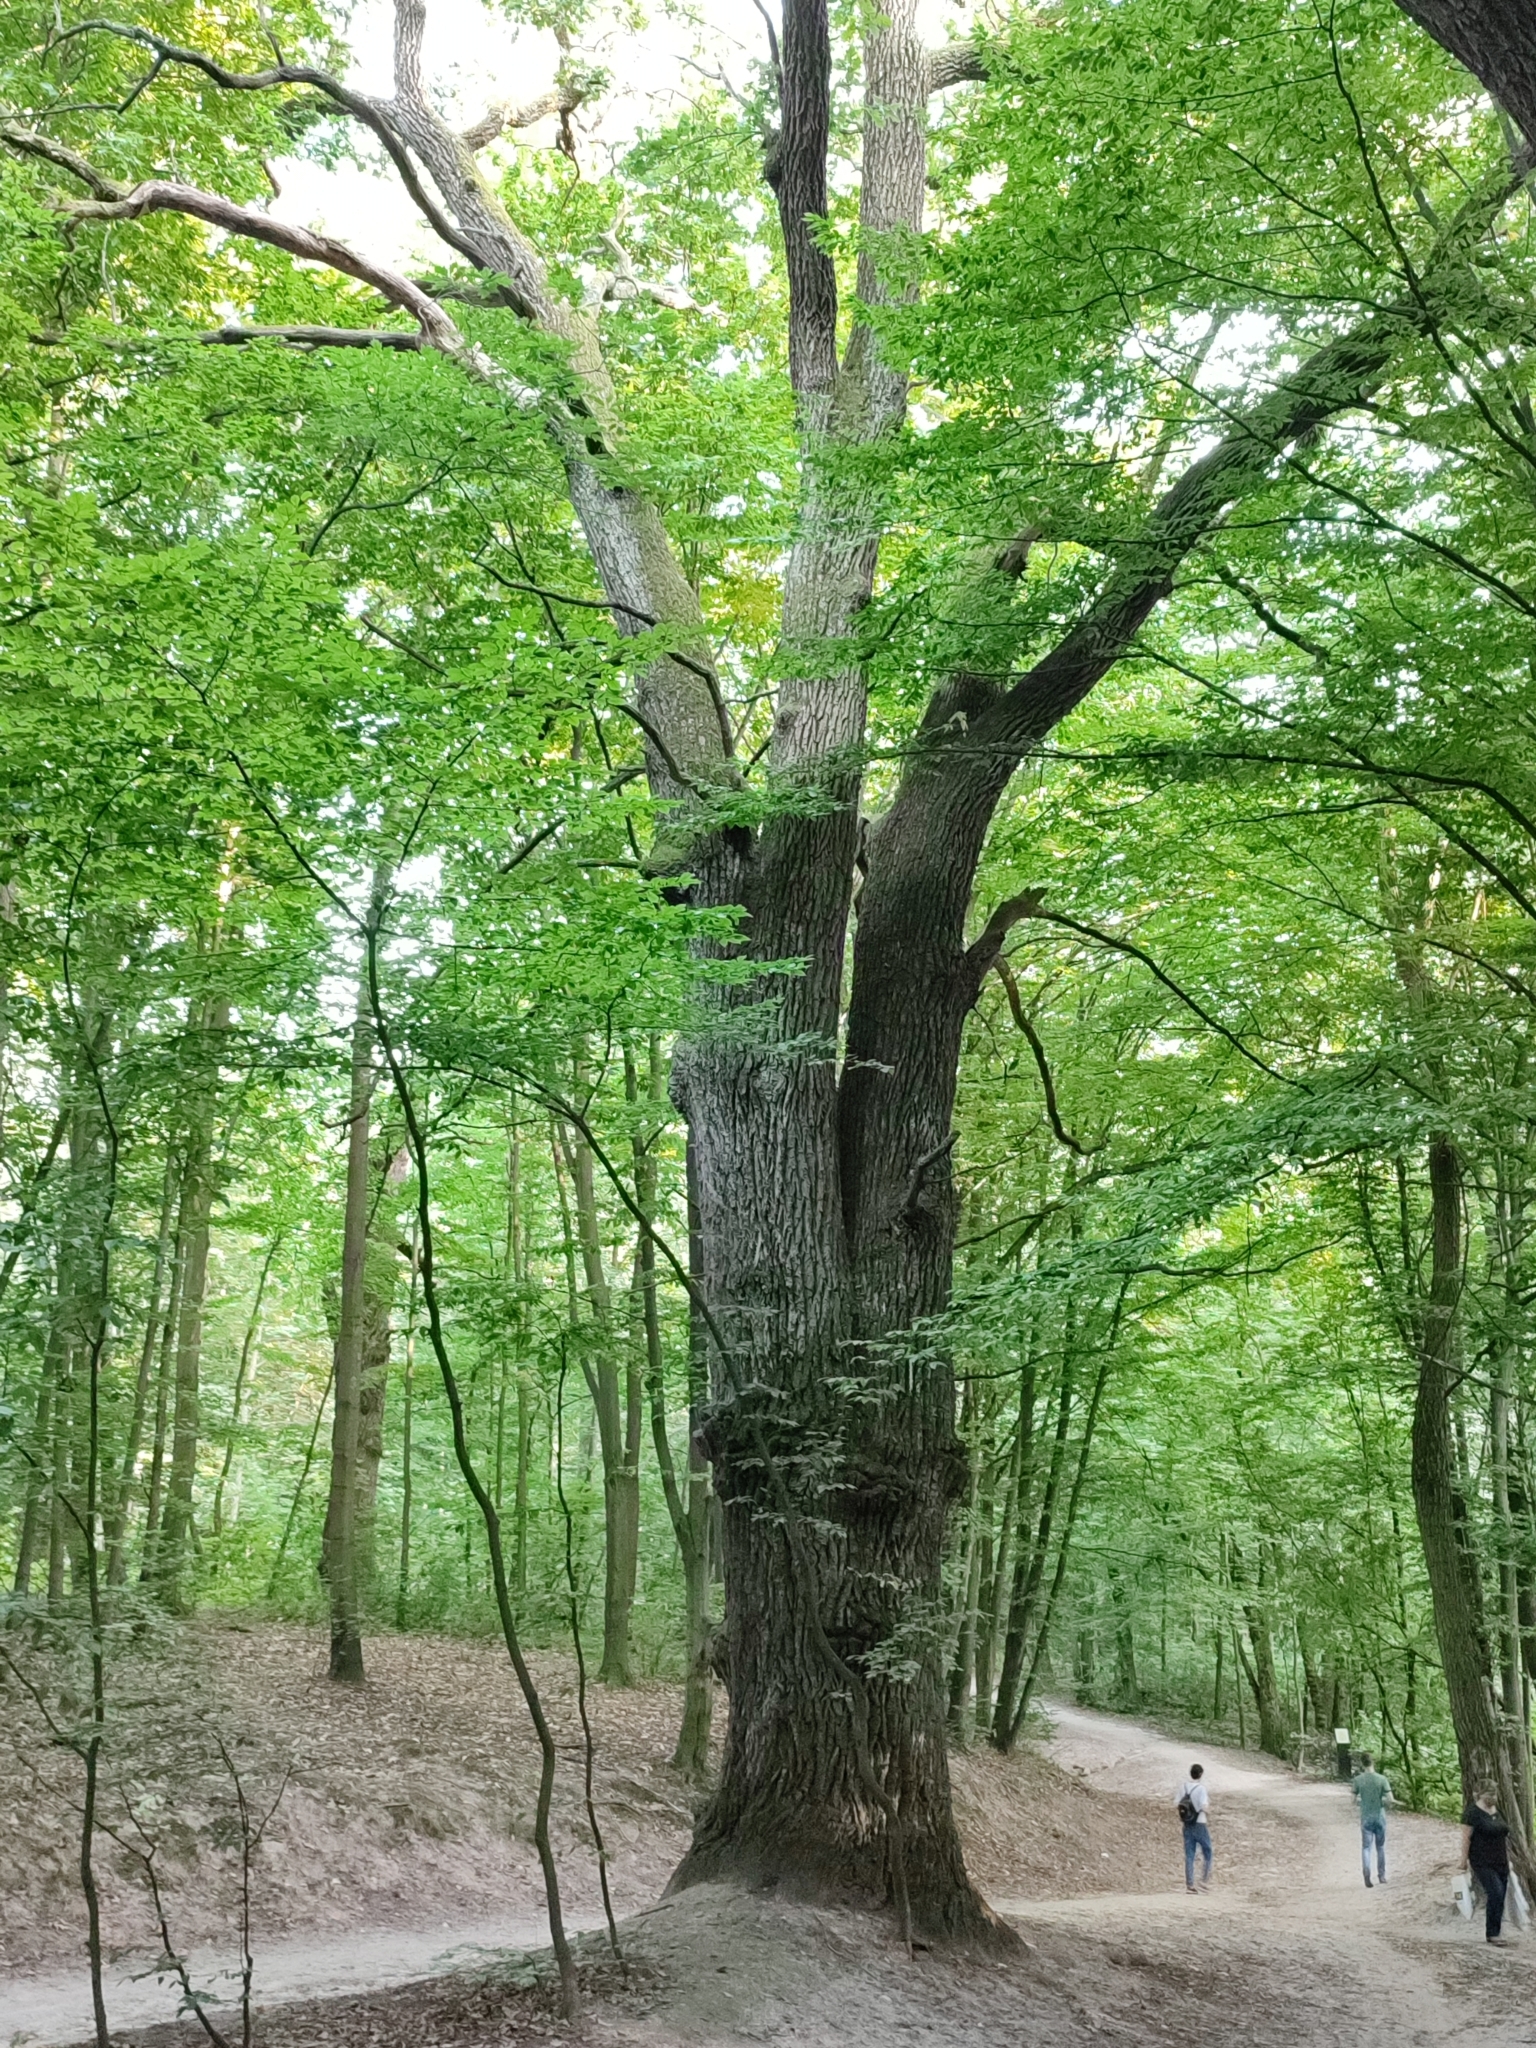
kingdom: Plantae
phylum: Tracheophyta
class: Magnoliopsida
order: Fagales
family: Fagaceae
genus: Quercus
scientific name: Quercus robur
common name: Pedunculate oak
